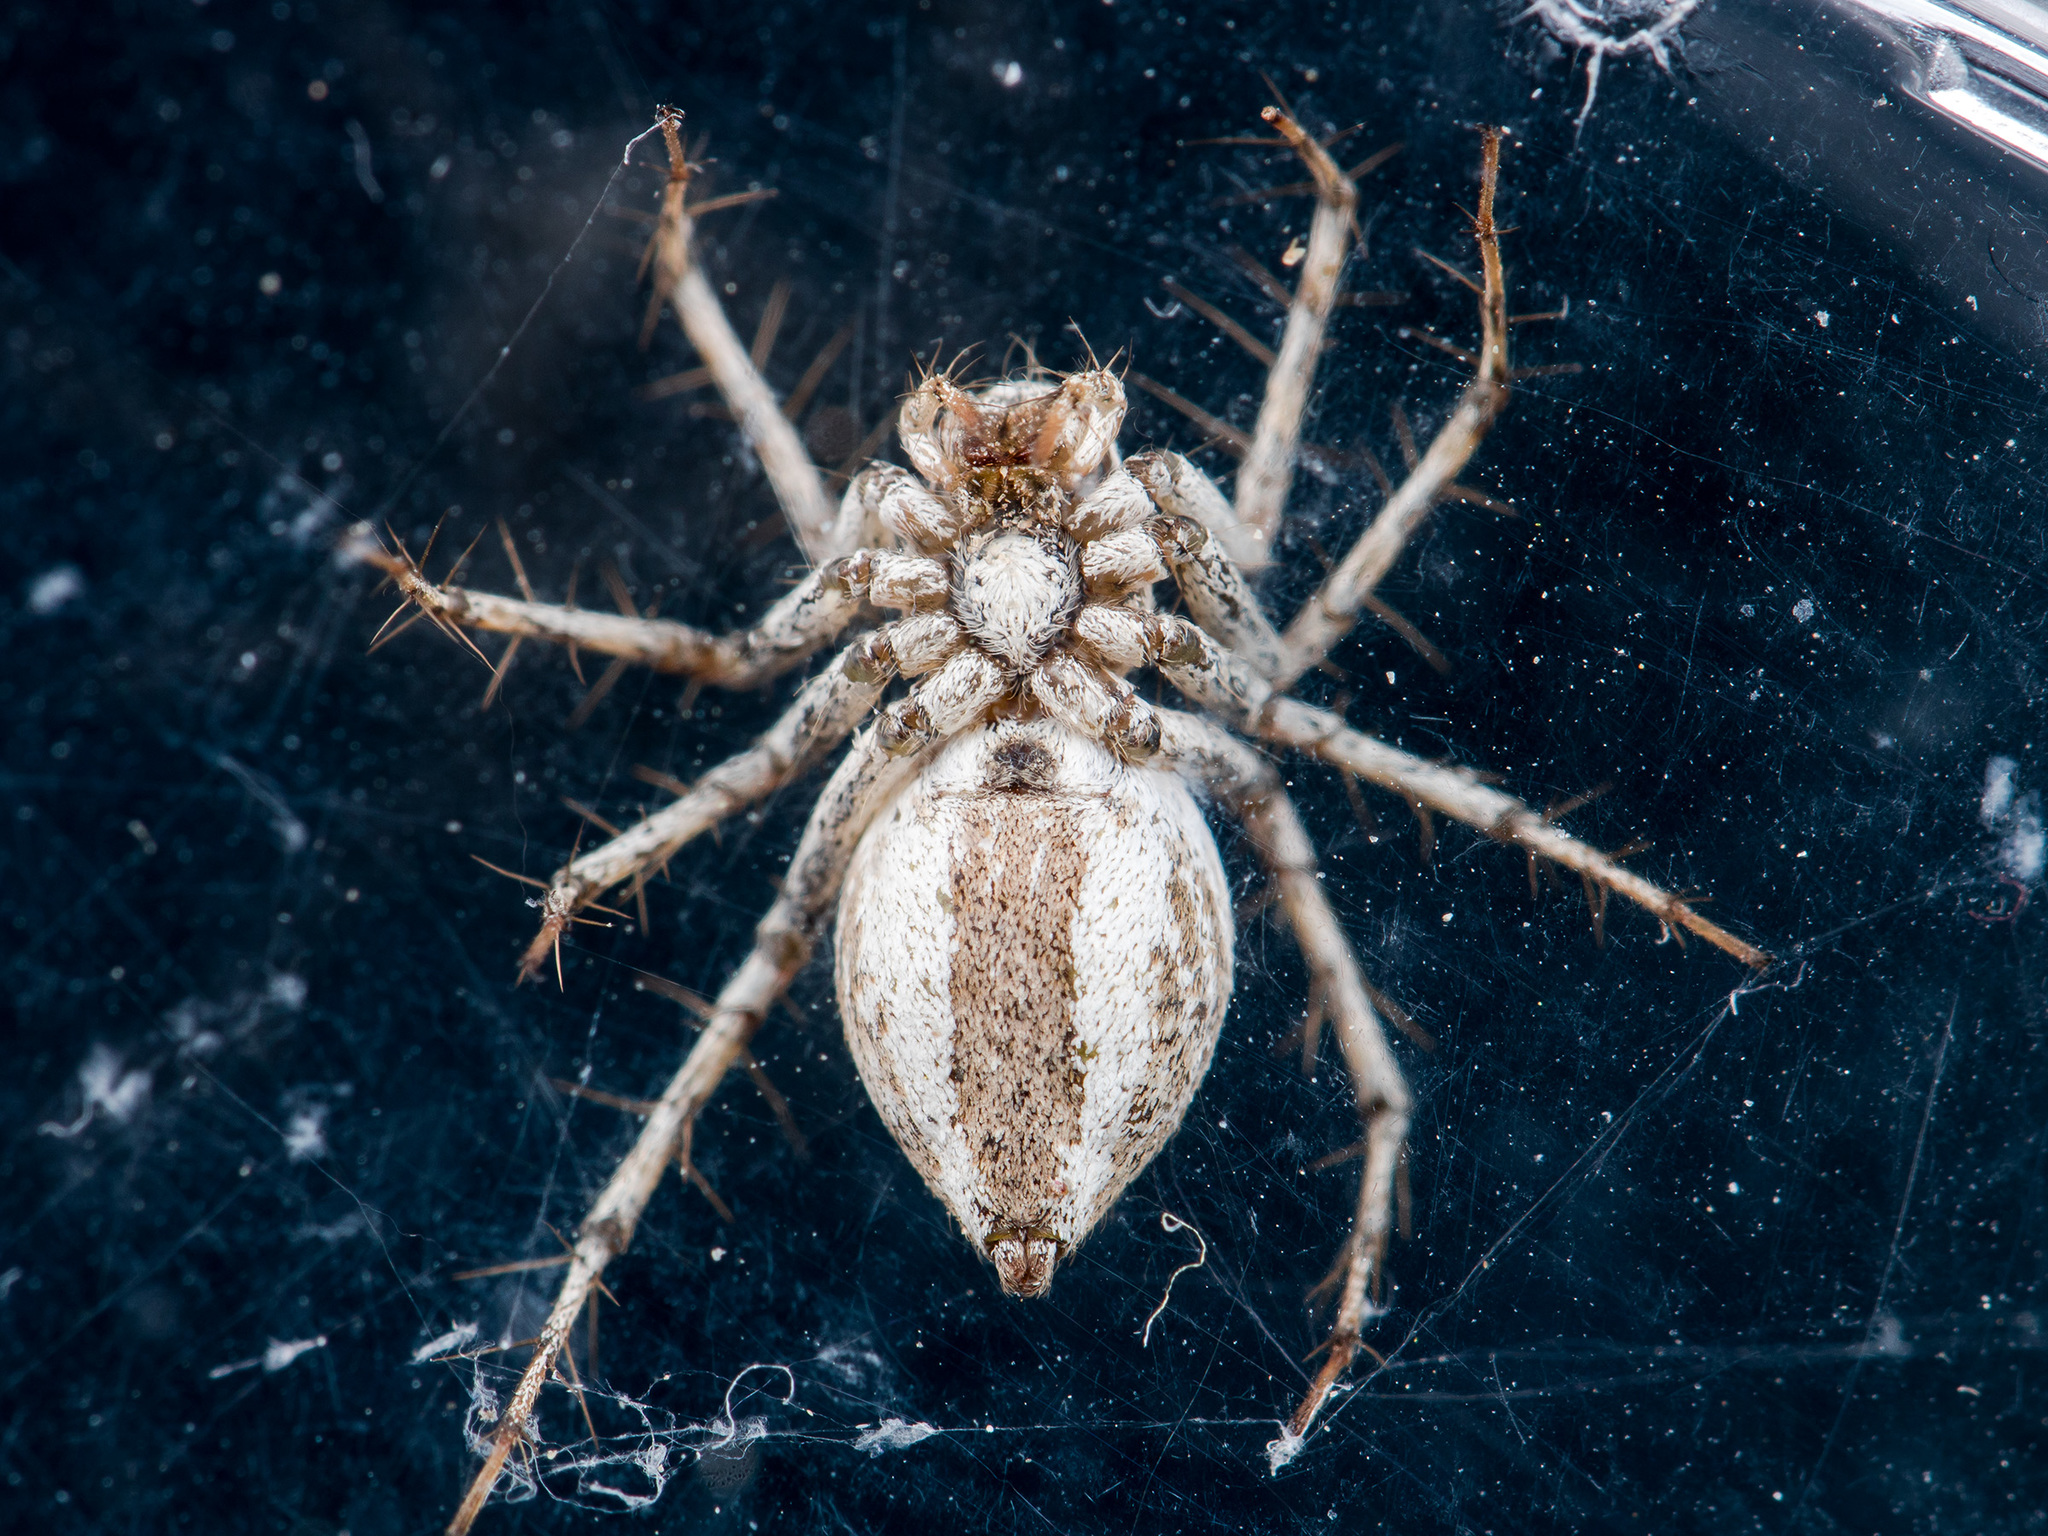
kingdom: Animalia
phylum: Arthropoda
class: Arachnida
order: Araneae
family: Oxyopidae
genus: Oxyopes
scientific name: Oxyopes globifer
